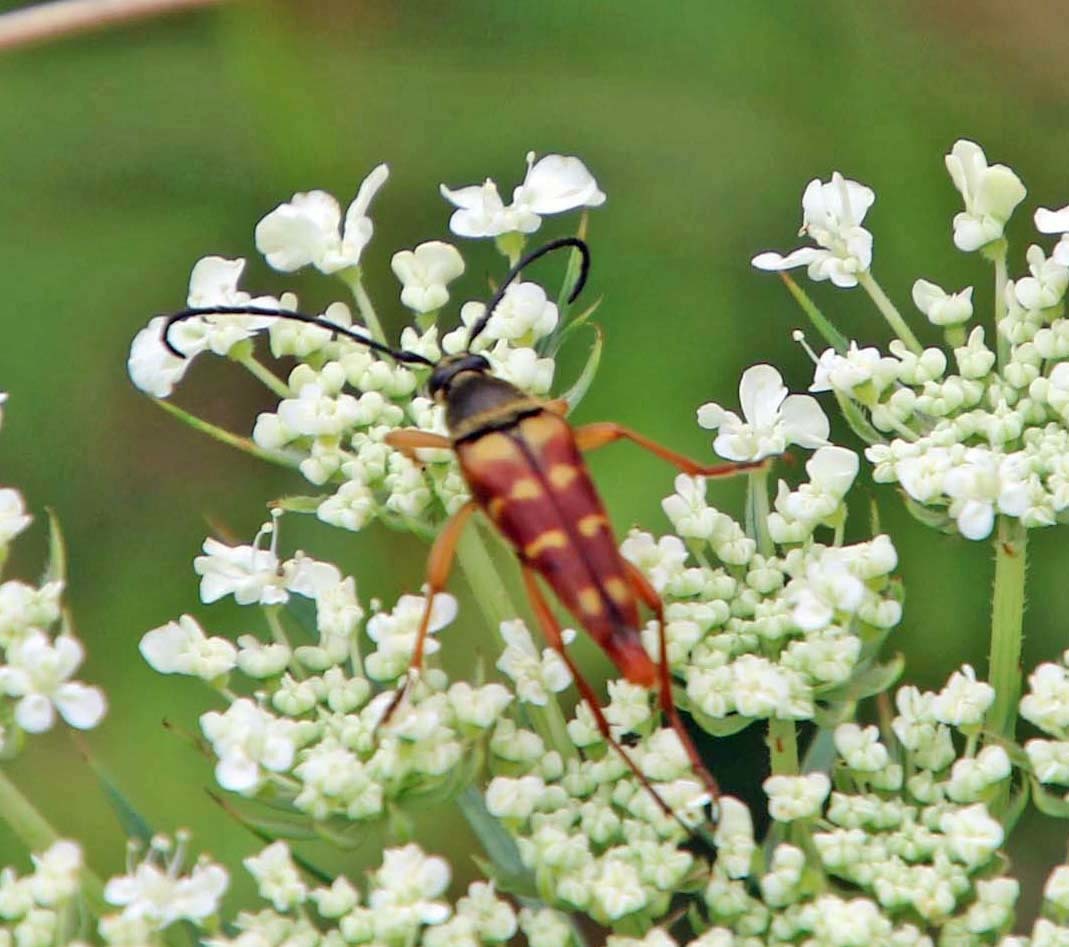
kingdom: Animalia
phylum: Arthropoda
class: Insecta
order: Coleoptera
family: Cerambycidae
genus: Typocerus
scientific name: Typocerus velutinus
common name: Banded longhorn beetle
